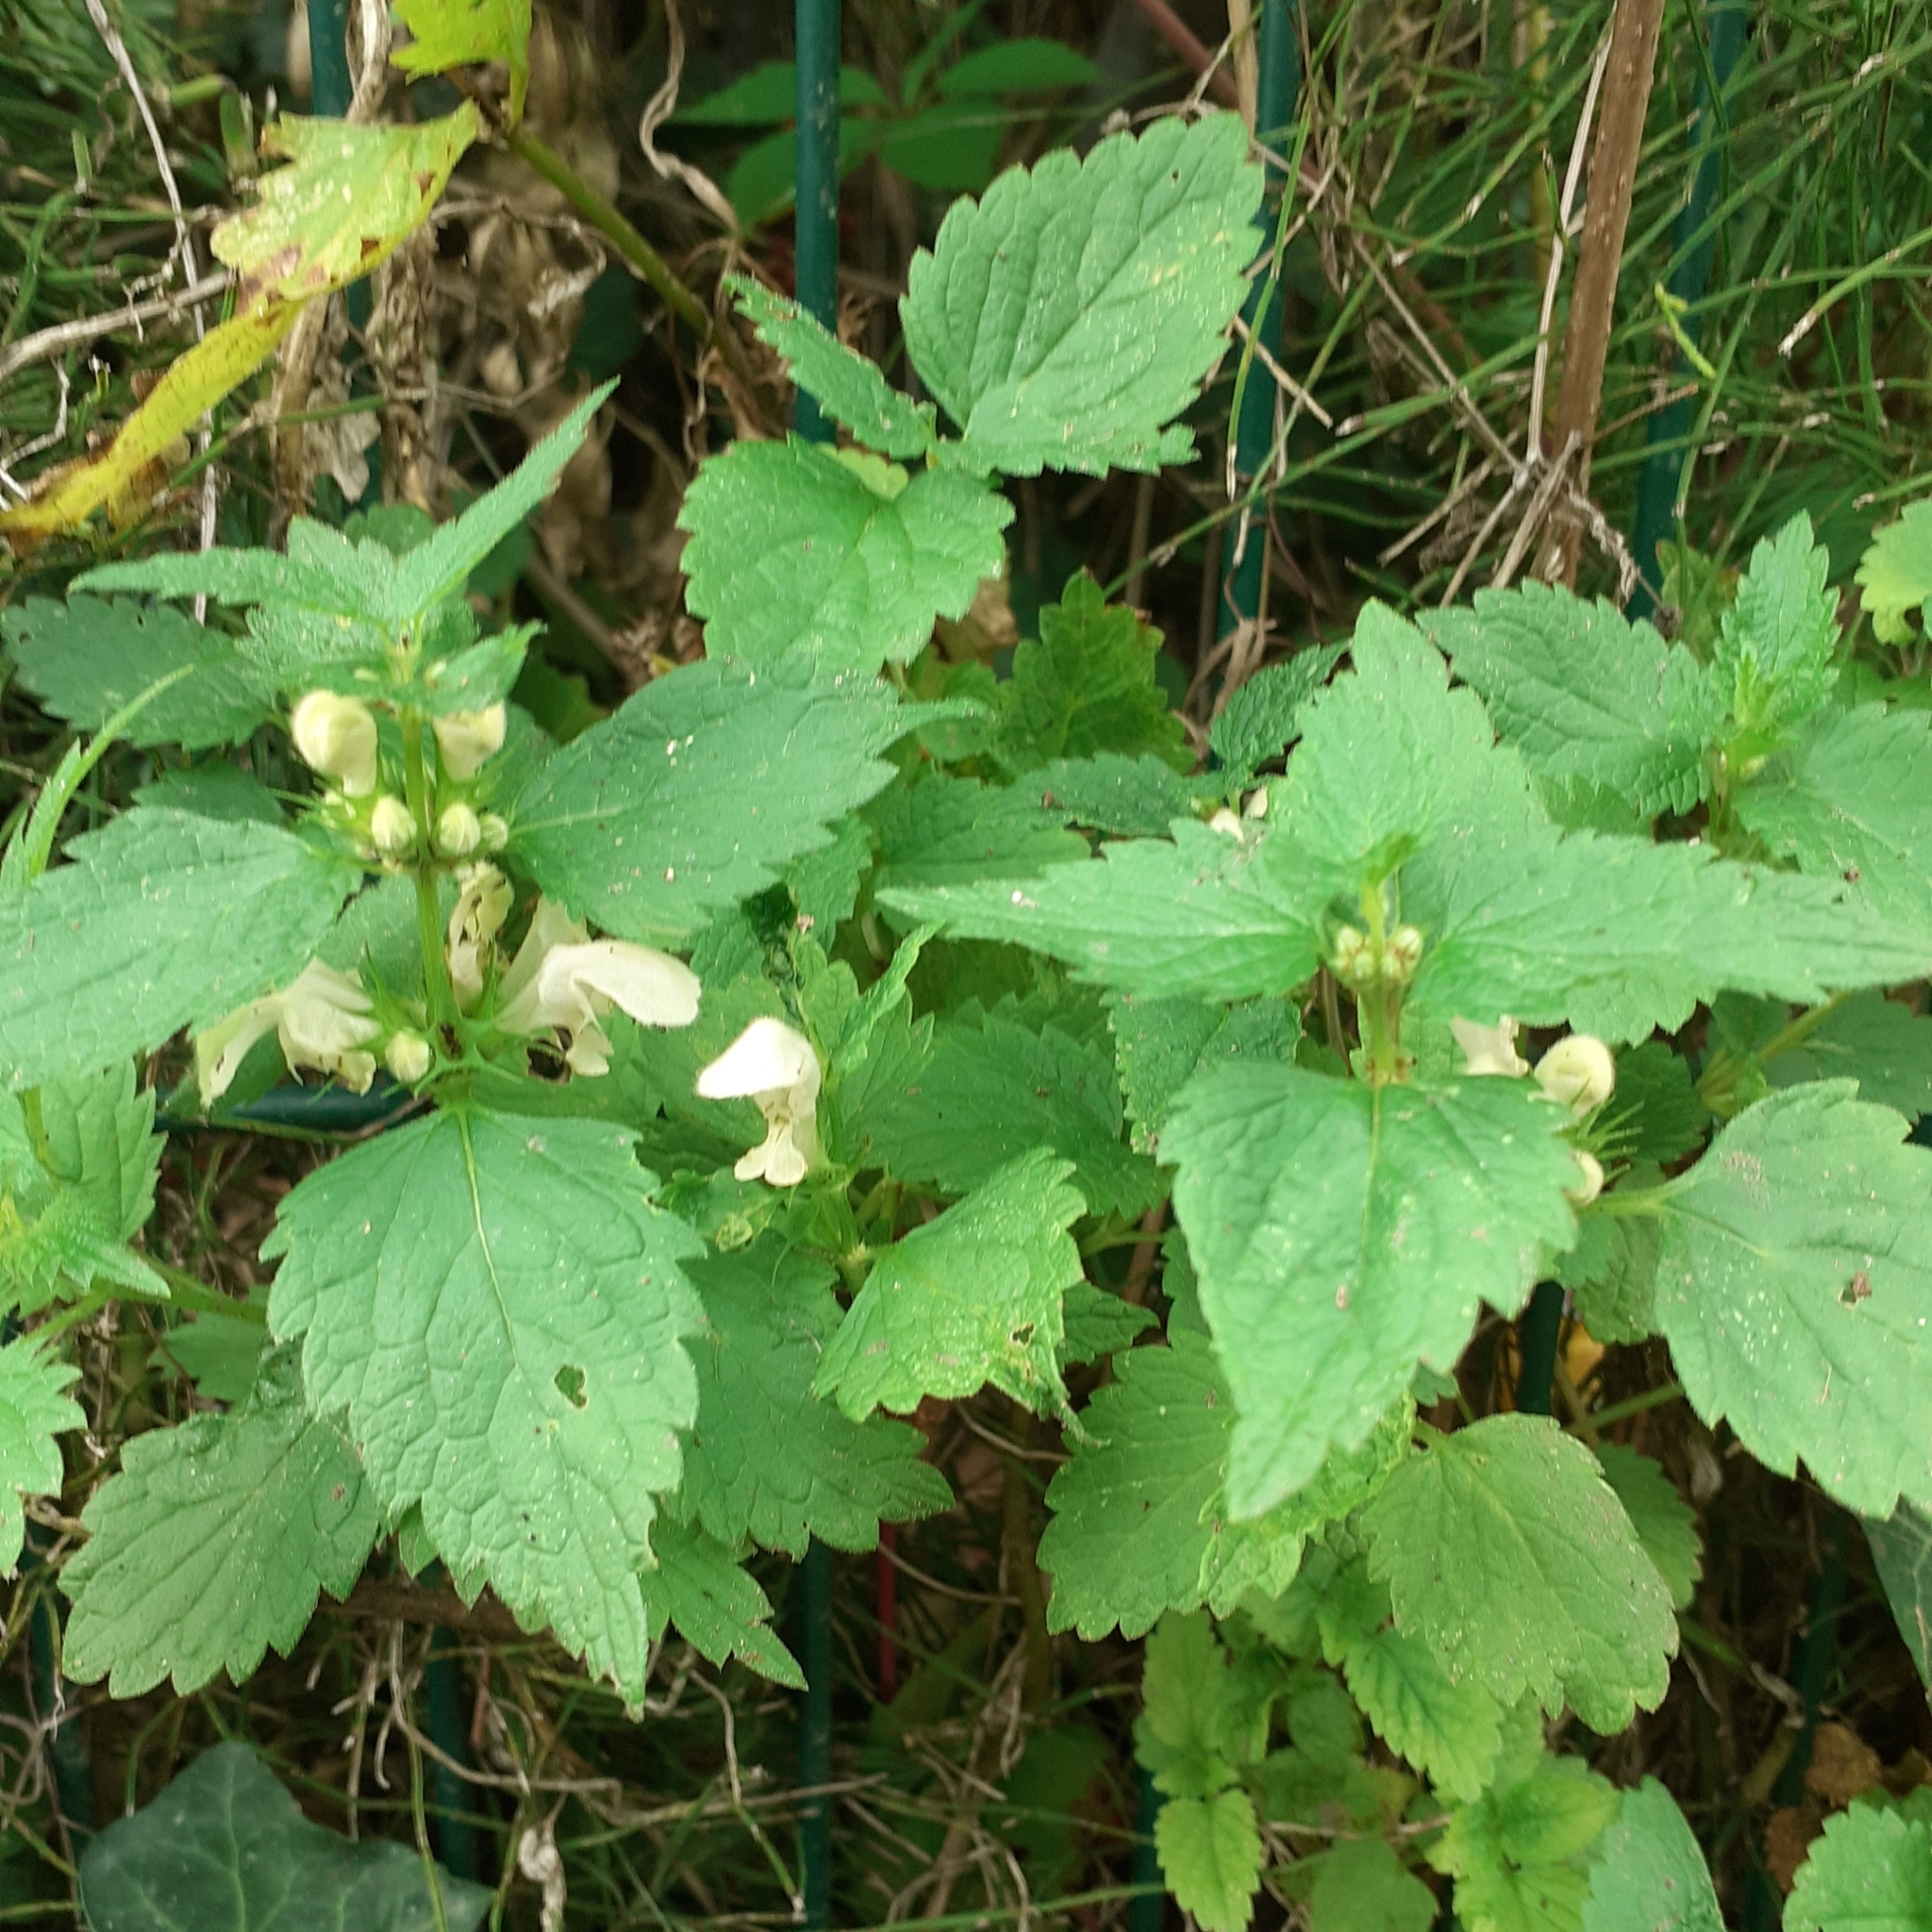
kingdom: Plantae
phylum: Tracheophyta
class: Magnoliopsida
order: Lamiales
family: Lamiaceae
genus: Lamium
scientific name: Lamium album
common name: White dead-nettle
